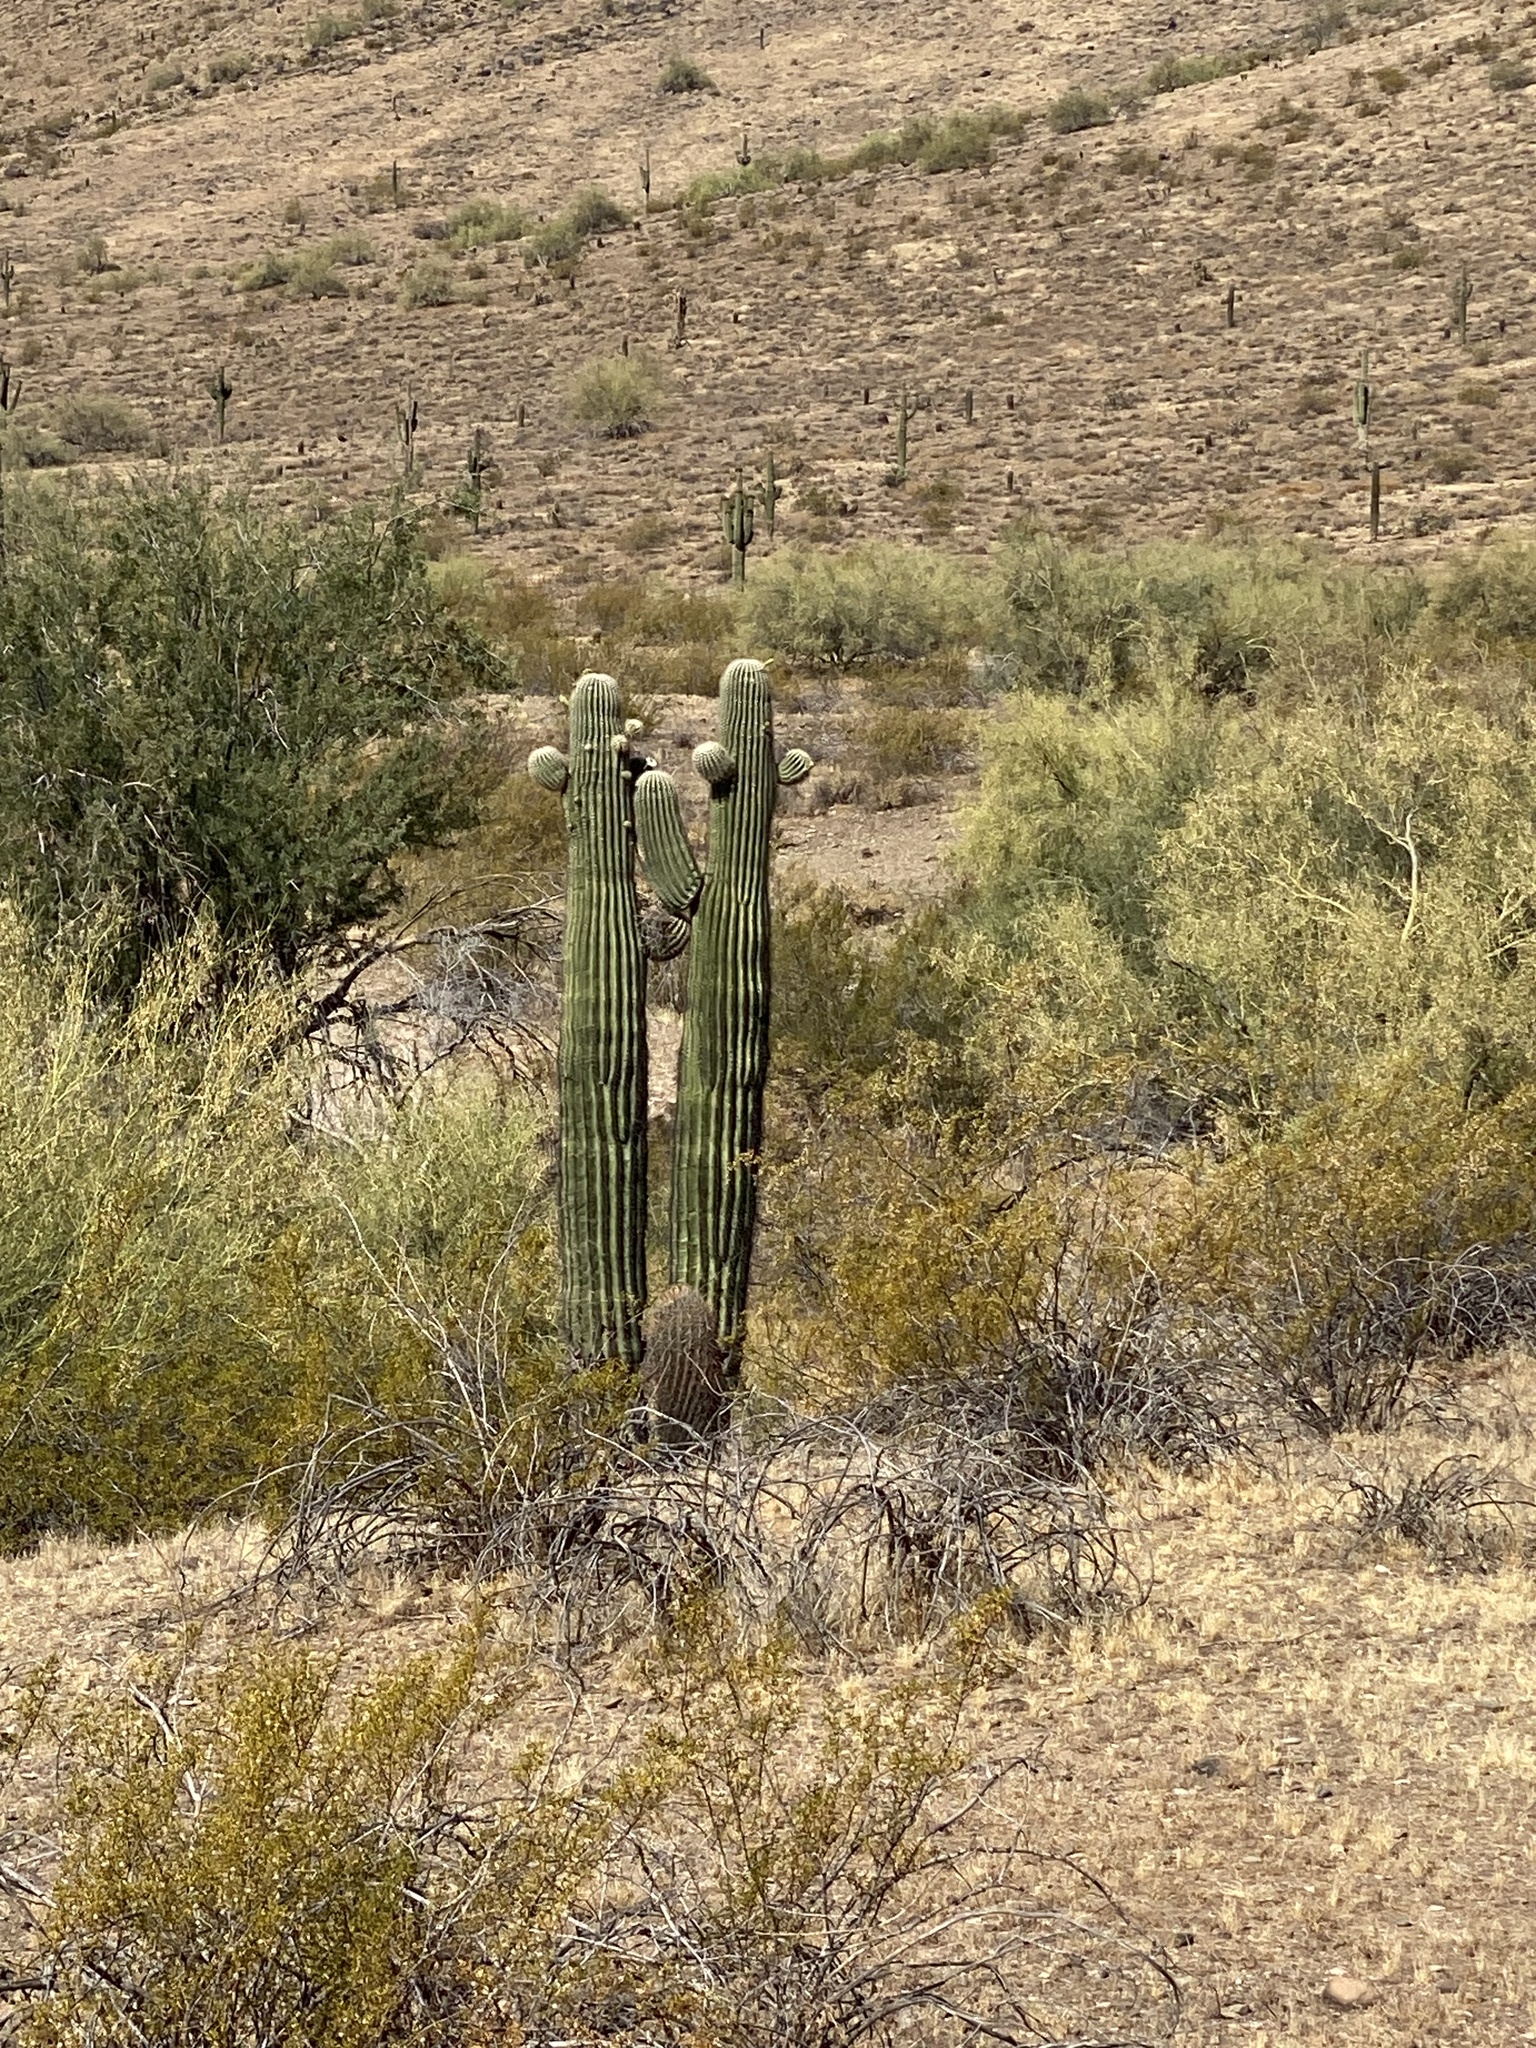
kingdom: Plantae
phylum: Tracheophyta
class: Magnoliopsida
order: Caryophyllales
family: Cactaceae
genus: Carnegiea
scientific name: Carnegiea gigantea
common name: Saguaro
